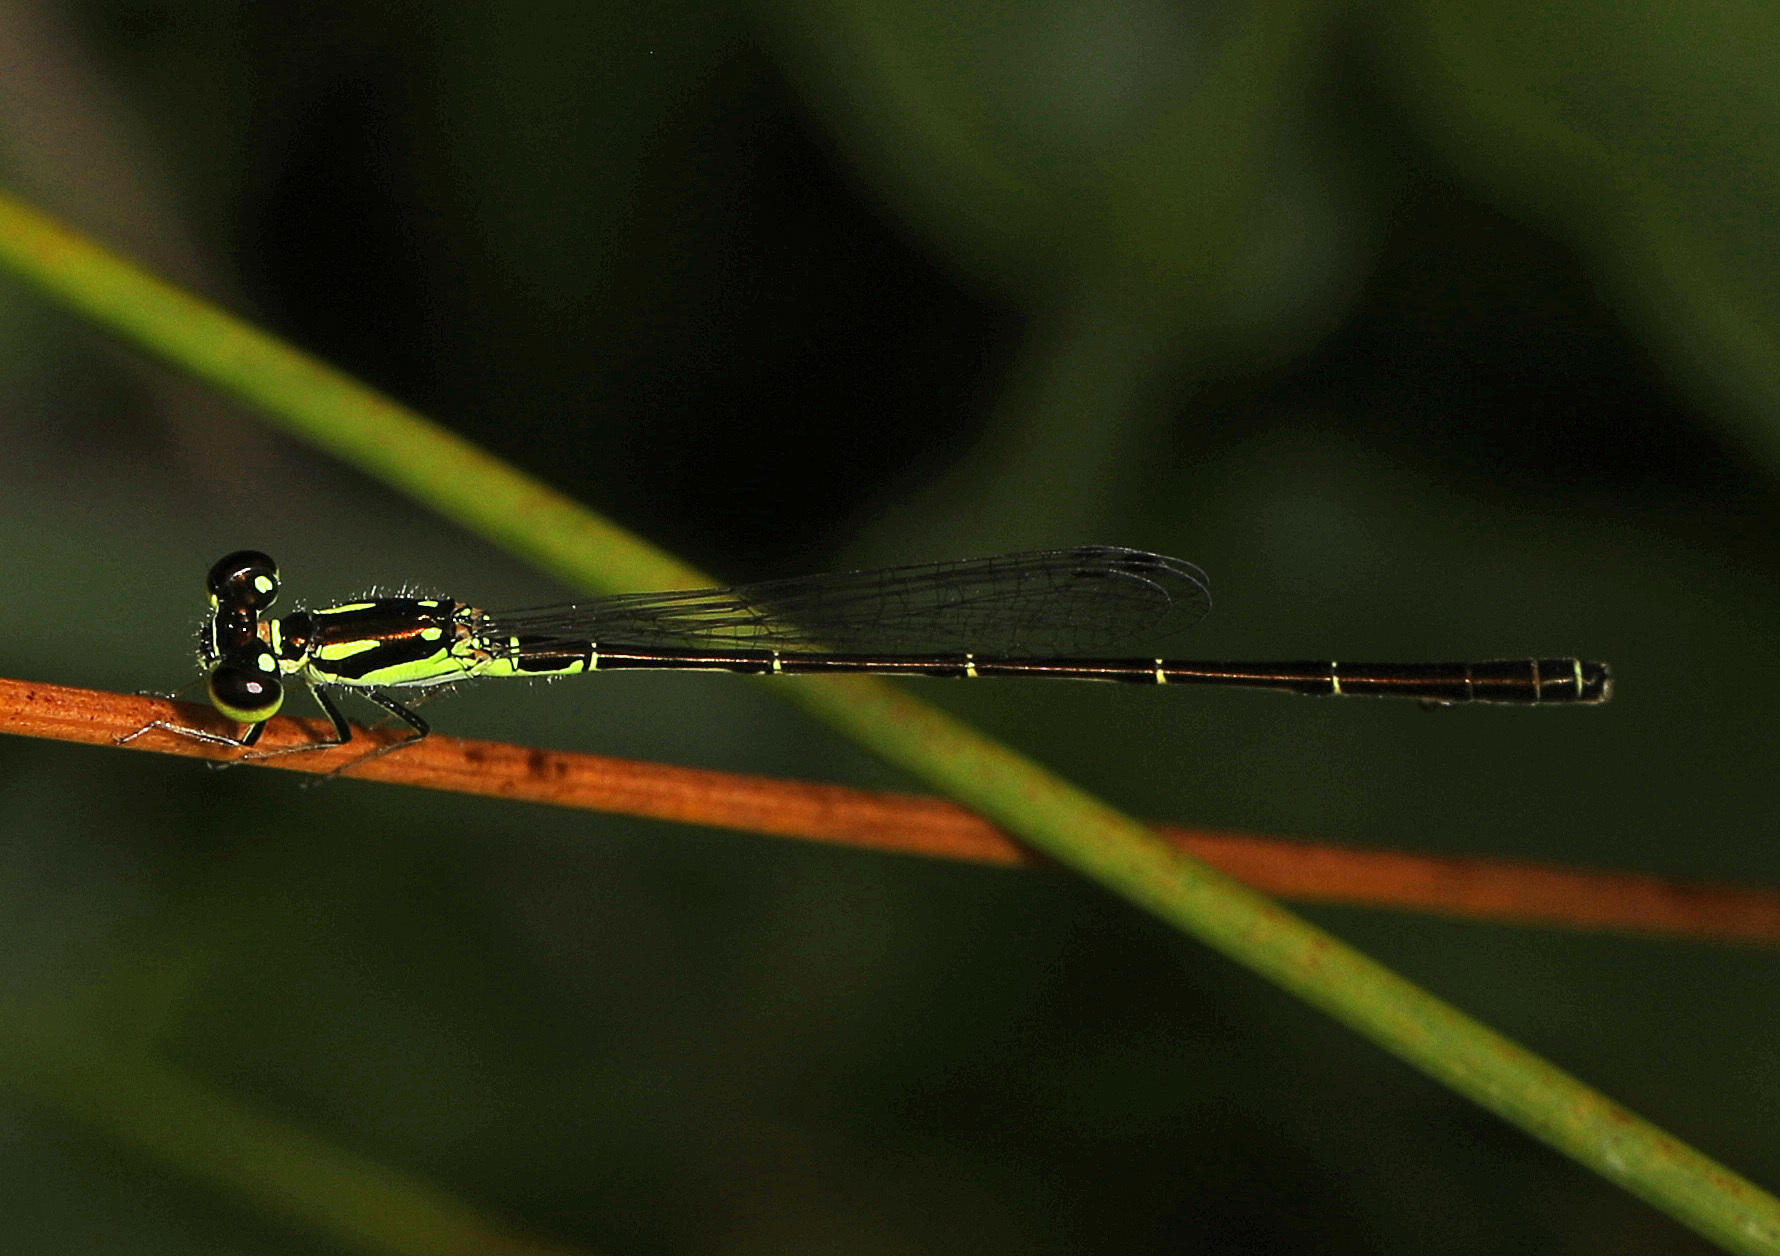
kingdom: Animalia
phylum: Arthropoda
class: Insecta
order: Odonata
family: Coenagrionidae
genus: Ischnura
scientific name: Ischnura posita
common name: Fragile forktail
